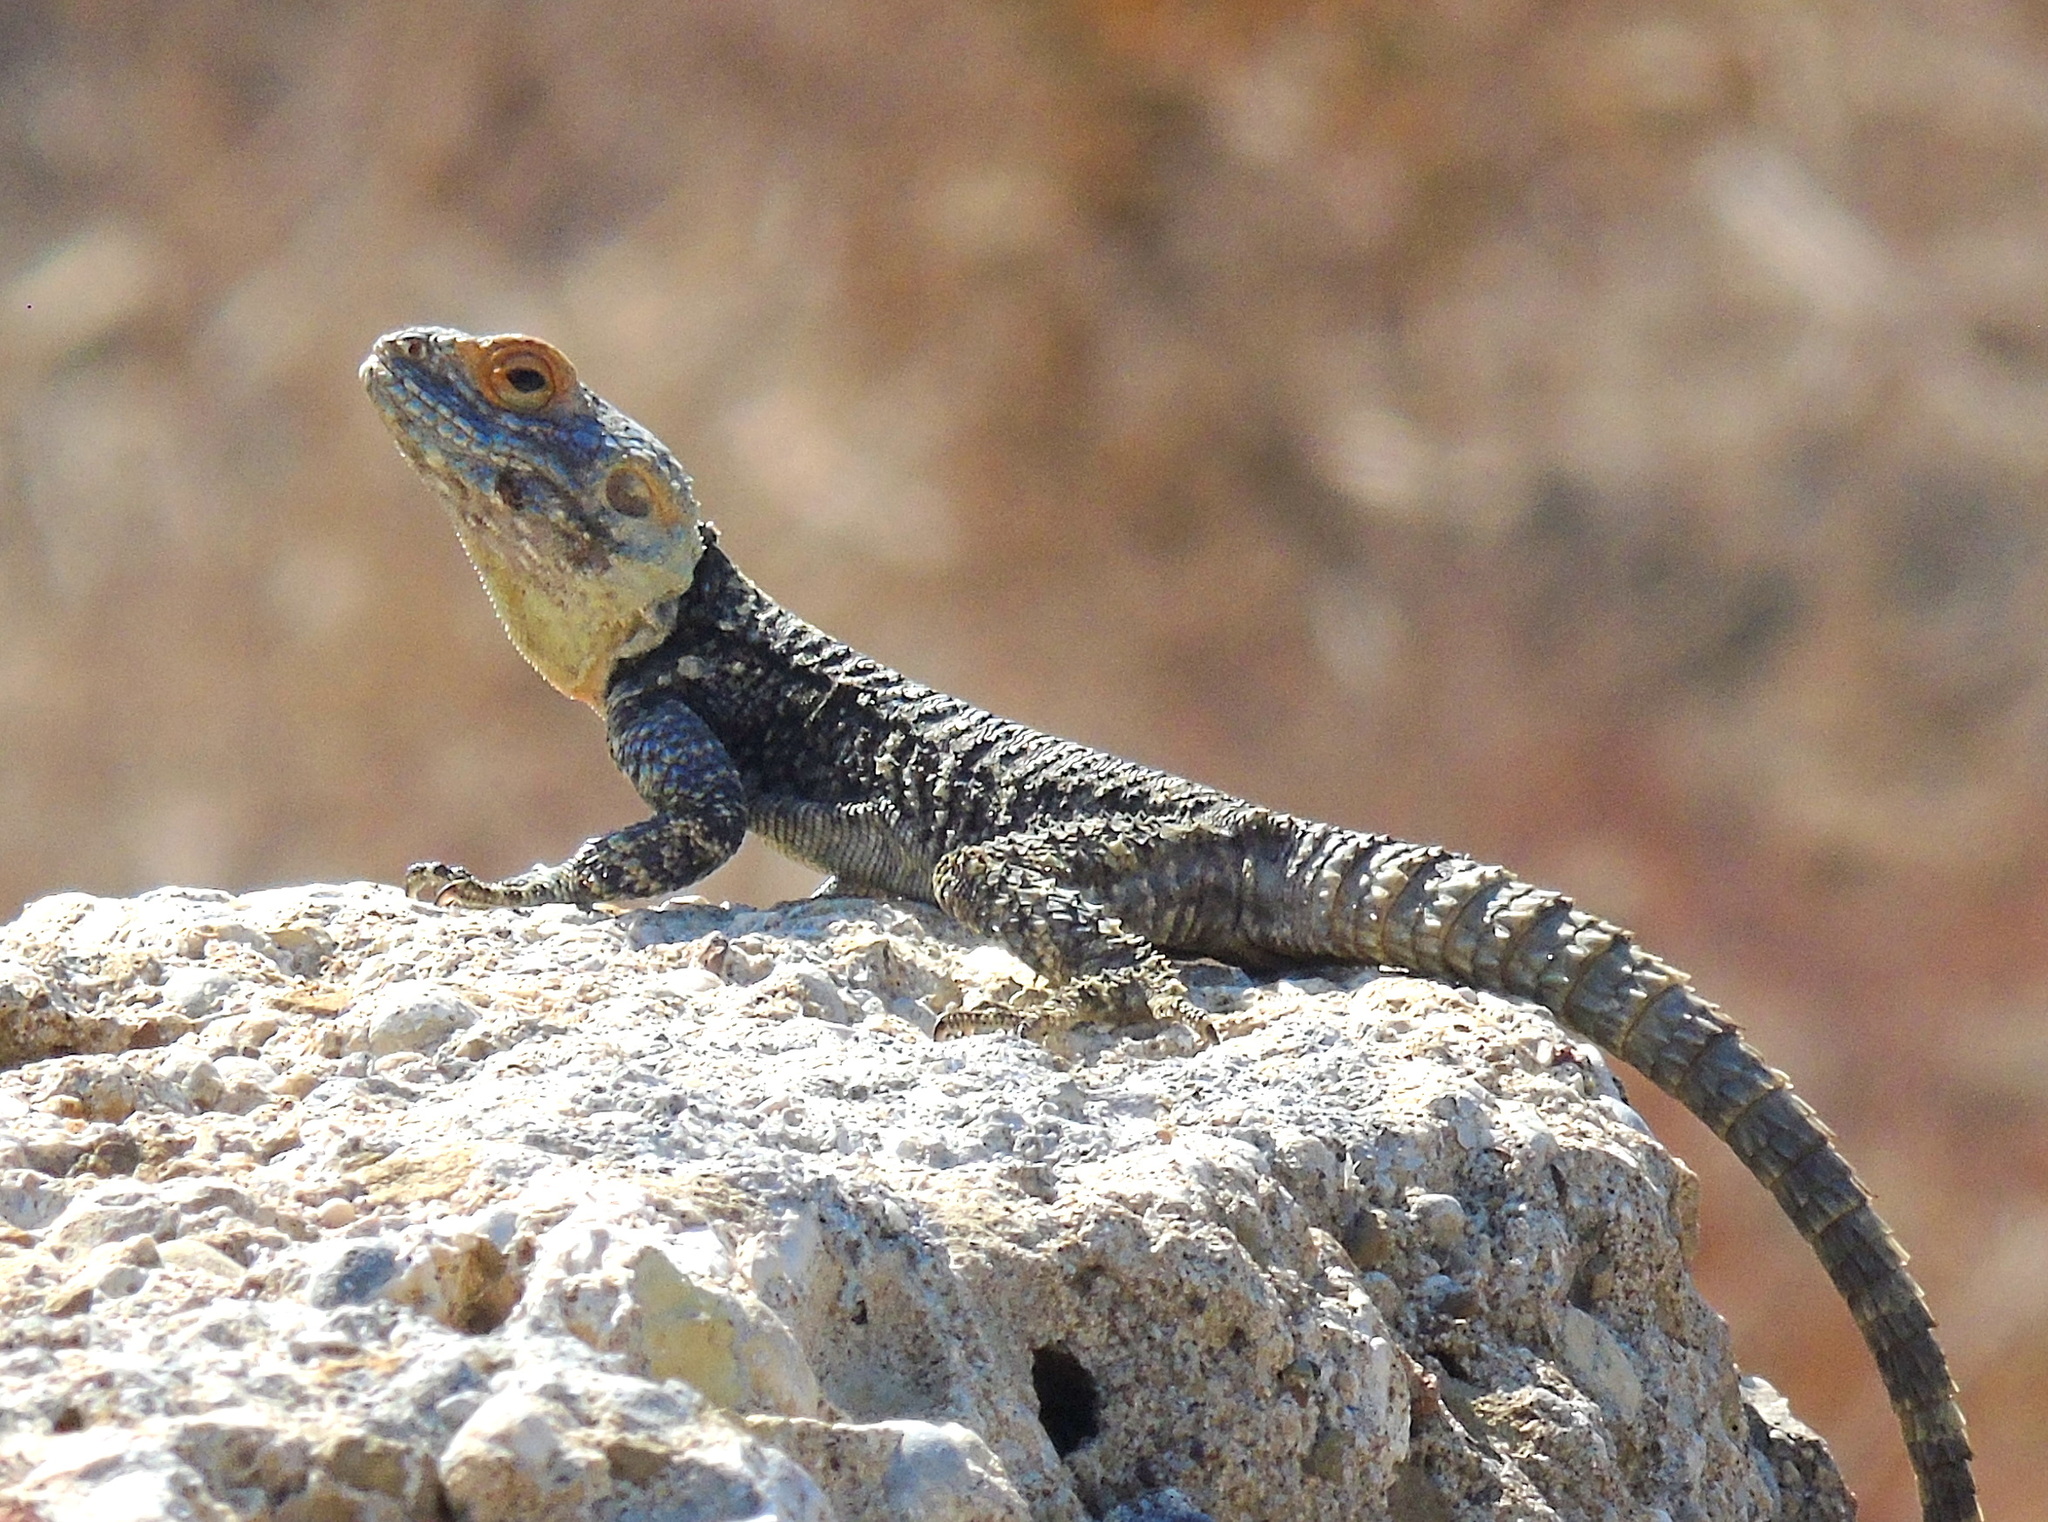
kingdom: Animalia
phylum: Chordata
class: Squamata
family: Agamidae
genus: Stellagama
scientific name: Stellagama stellio
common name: Starred agama
